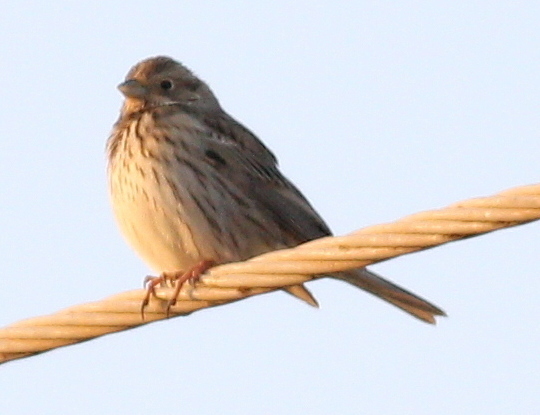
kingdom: Animalia
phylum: Chordata
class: Aves
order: Passeriformes
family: Emberizidae
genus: Emberiza
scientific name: Emberiza calandra
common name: Corn bunting
